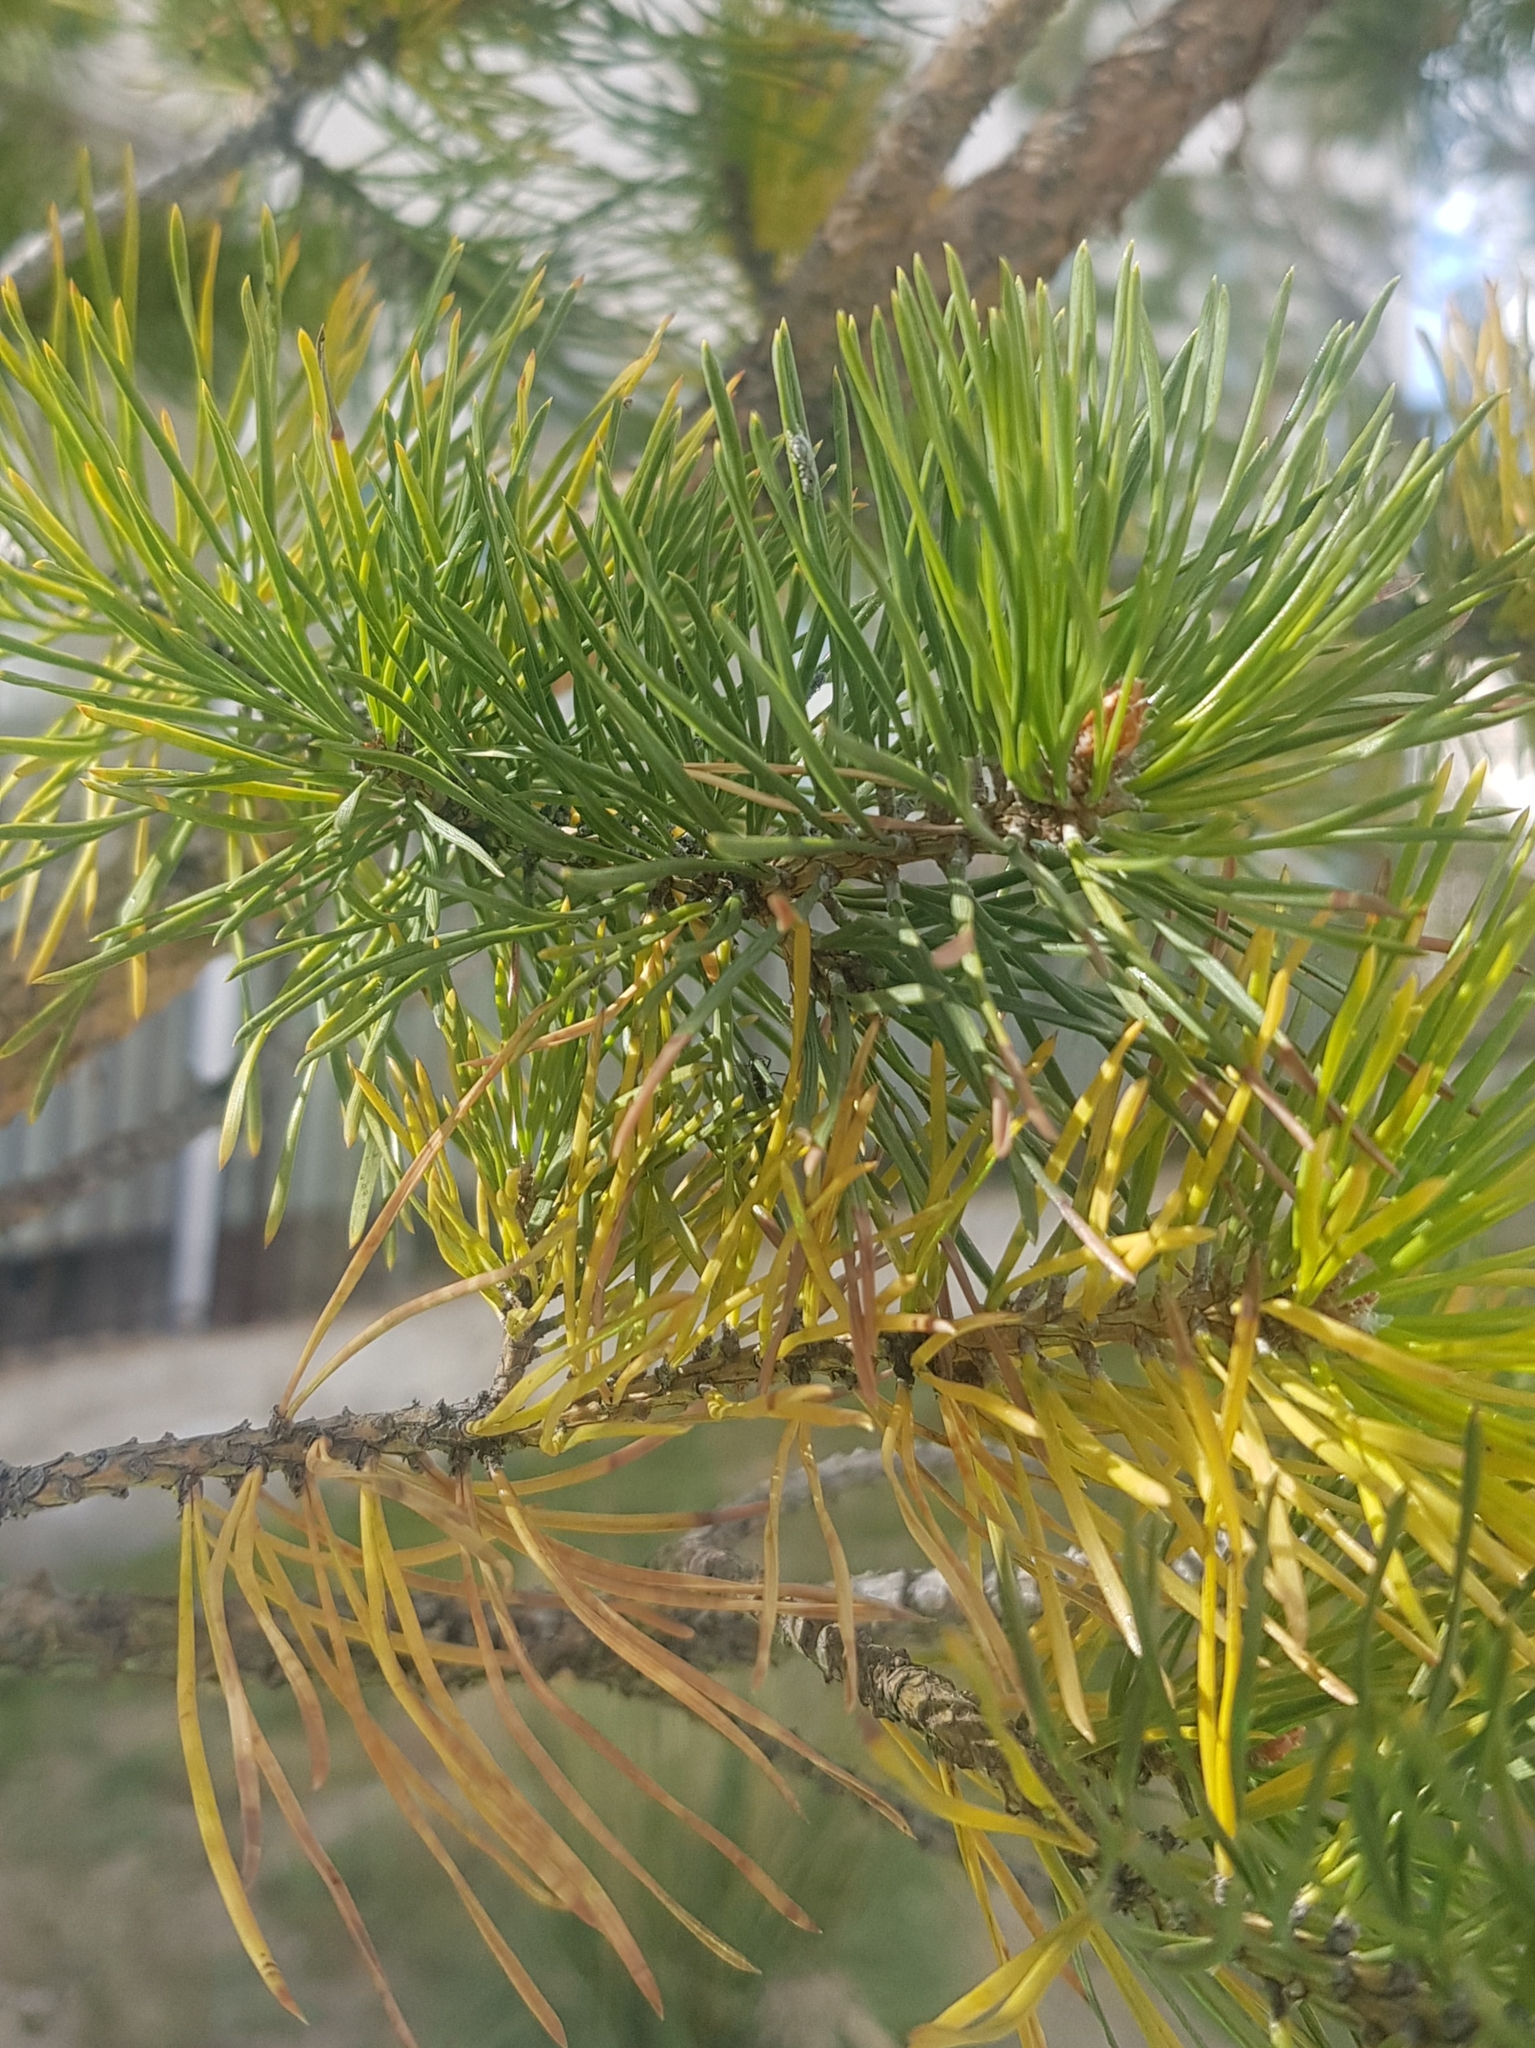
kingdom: Plantae
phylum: Tracheophyta
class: Pinopsida
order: Pinales
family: Pinaceae
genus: Pinus
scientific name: Pinus sylvestris
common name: Scots pine
